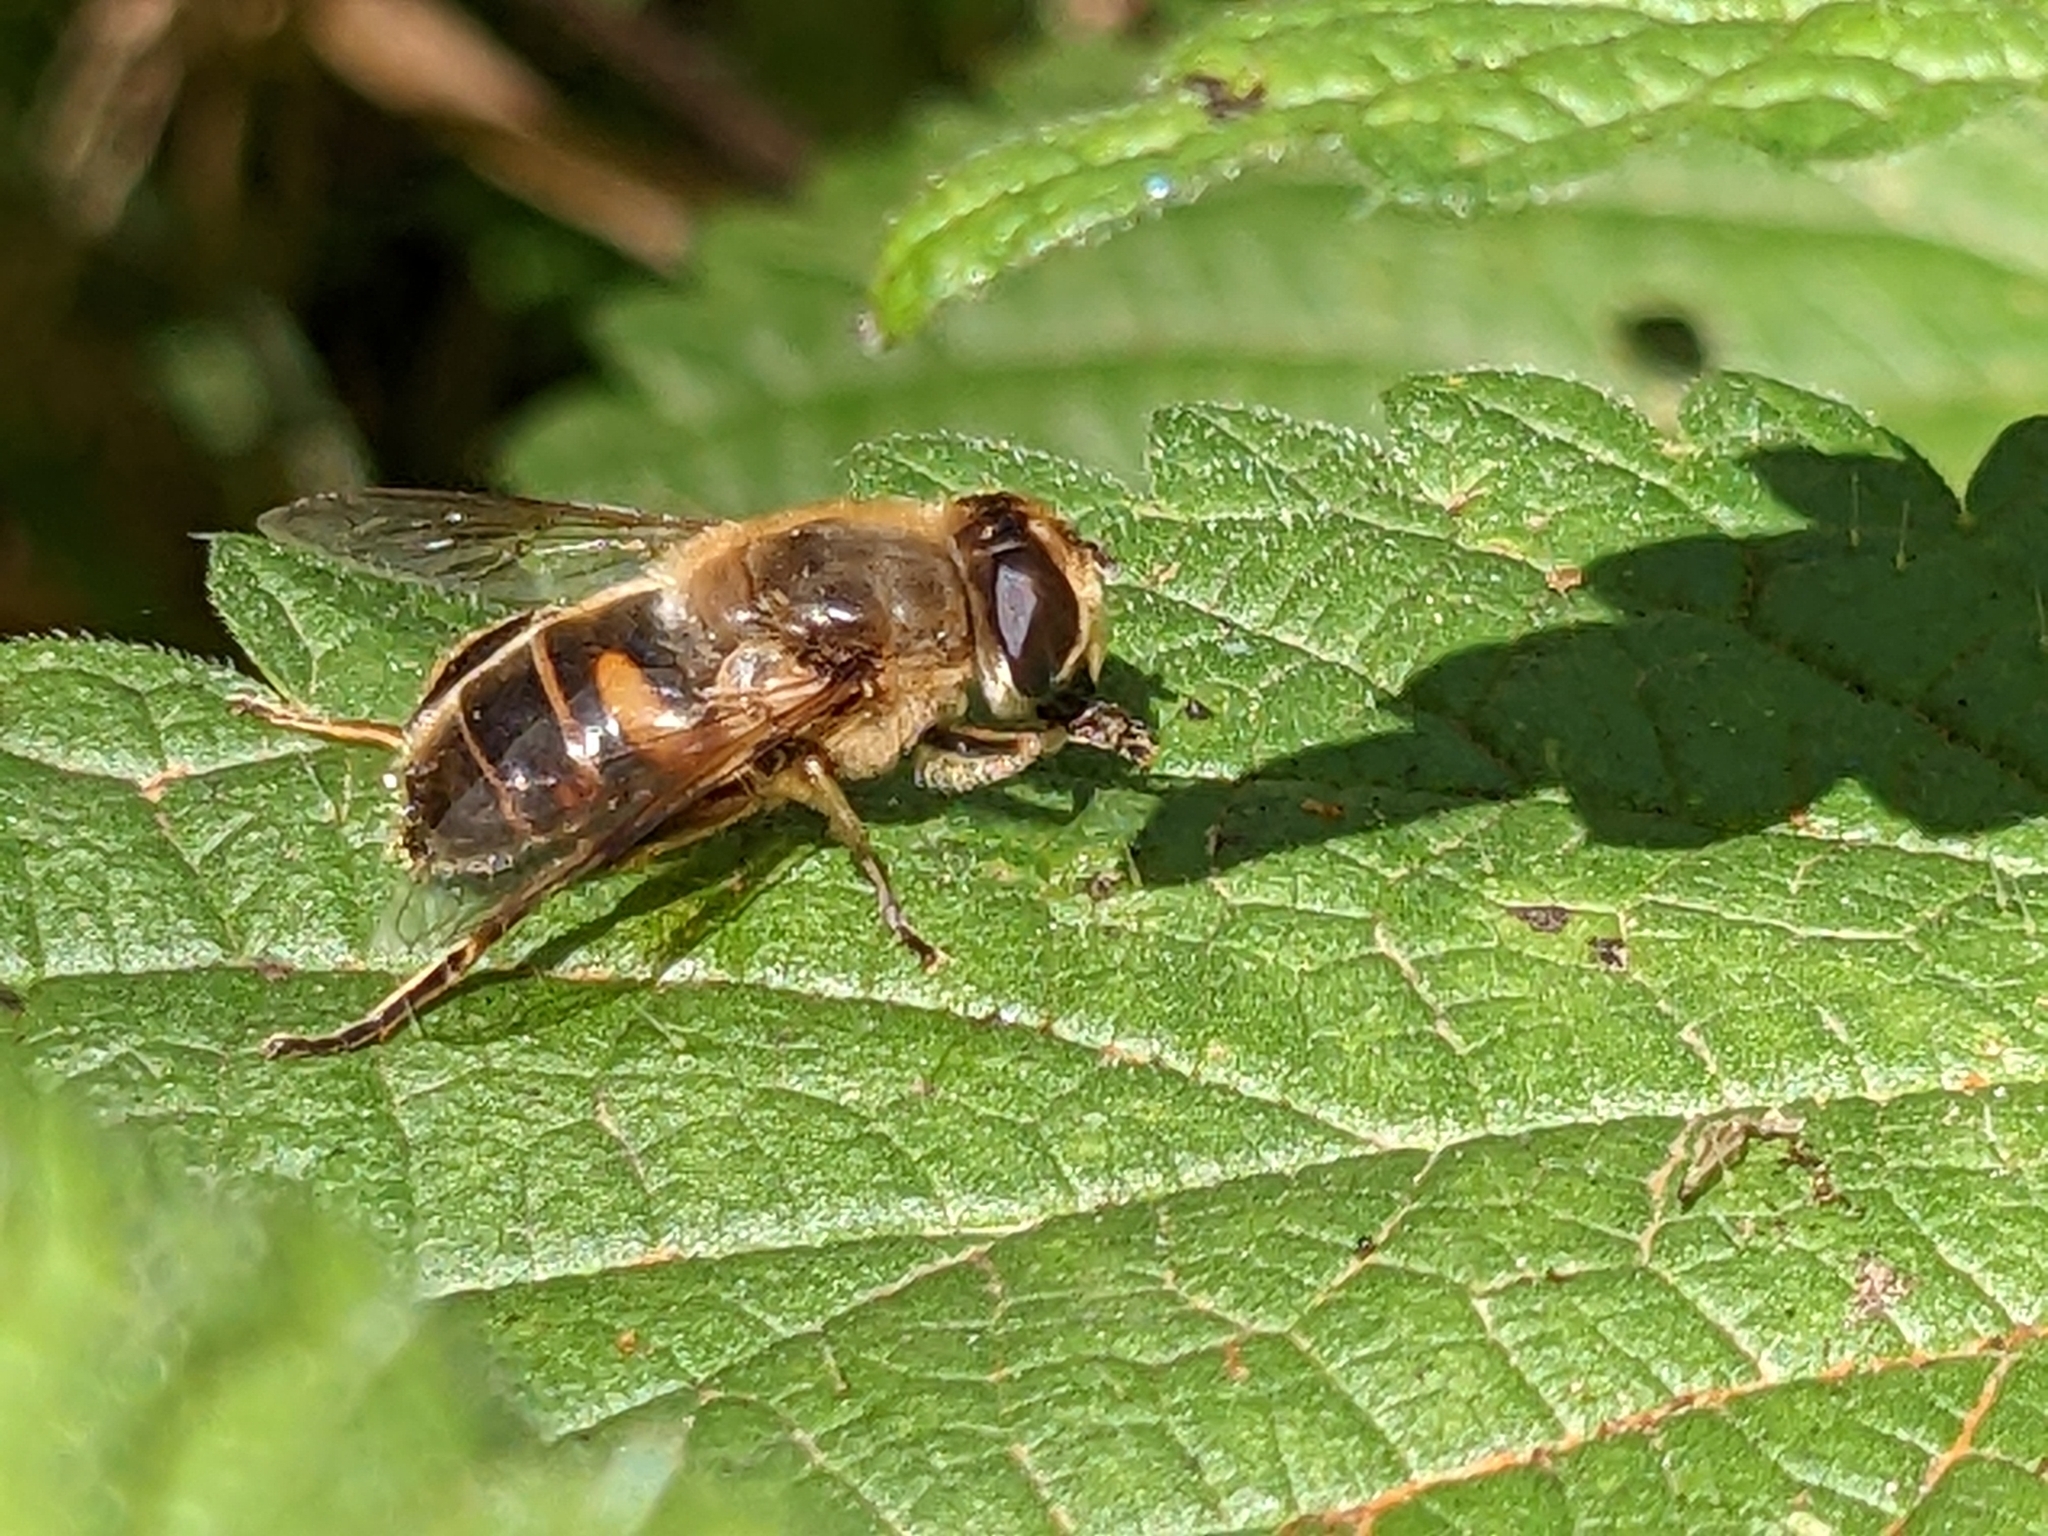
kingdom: Animalia
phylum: Arthropoda
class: Insecta
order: Diptera
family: Syrphidae
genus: Eristalis
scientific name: Eristalis tenax
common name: Drone fly
